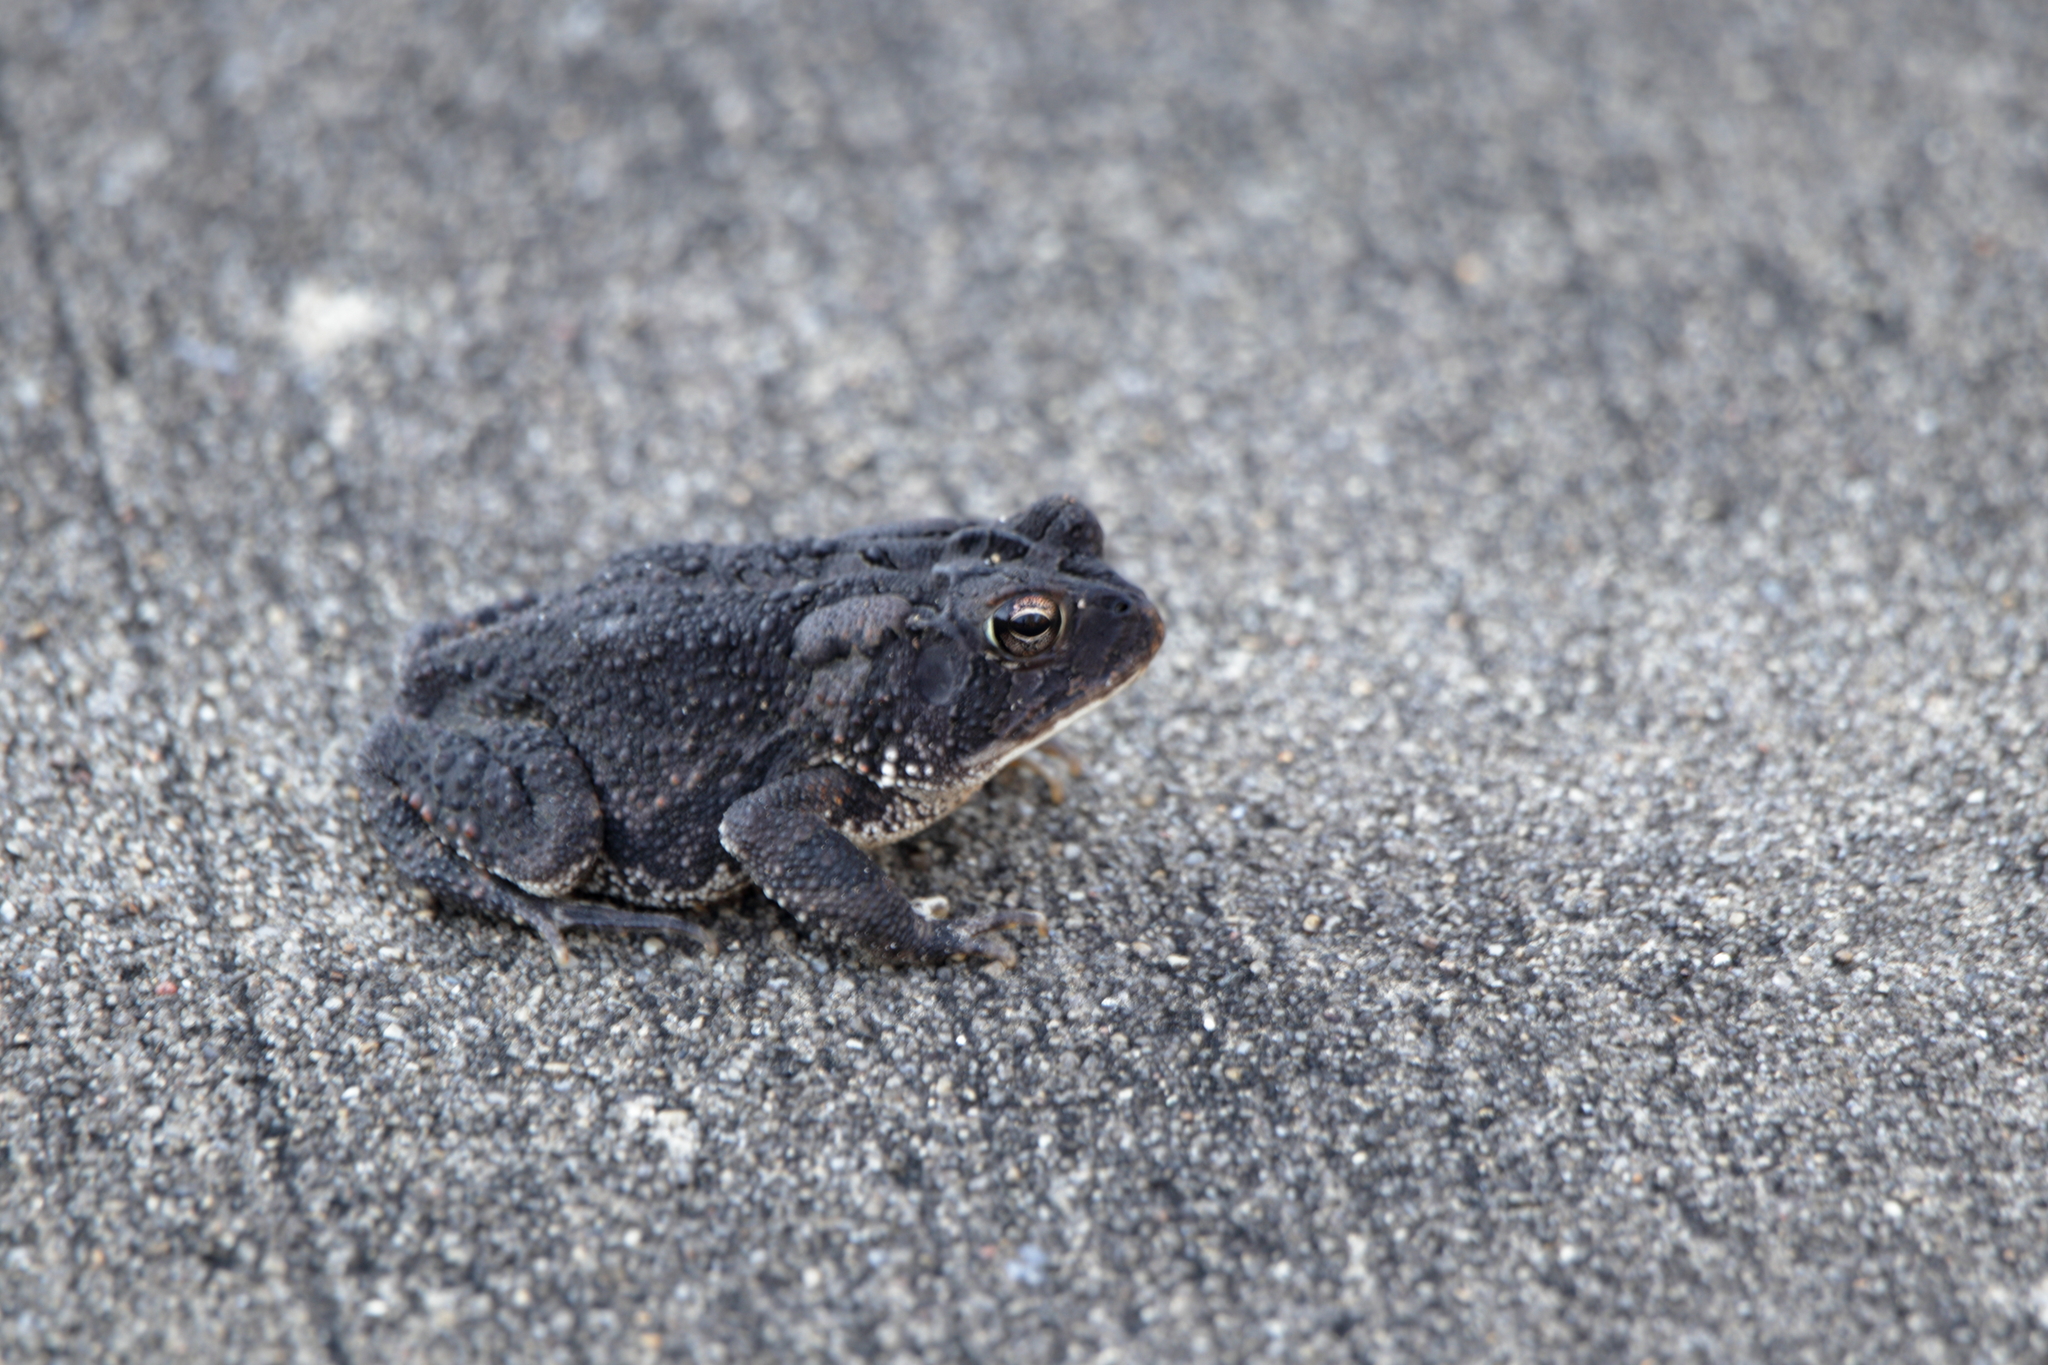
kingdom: Animalia
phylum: Chordata
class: Amphibia
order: Anura
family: Bufonidae
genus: Anaxyrus
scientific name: Anaxyrus terrestris
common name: Southern toad
